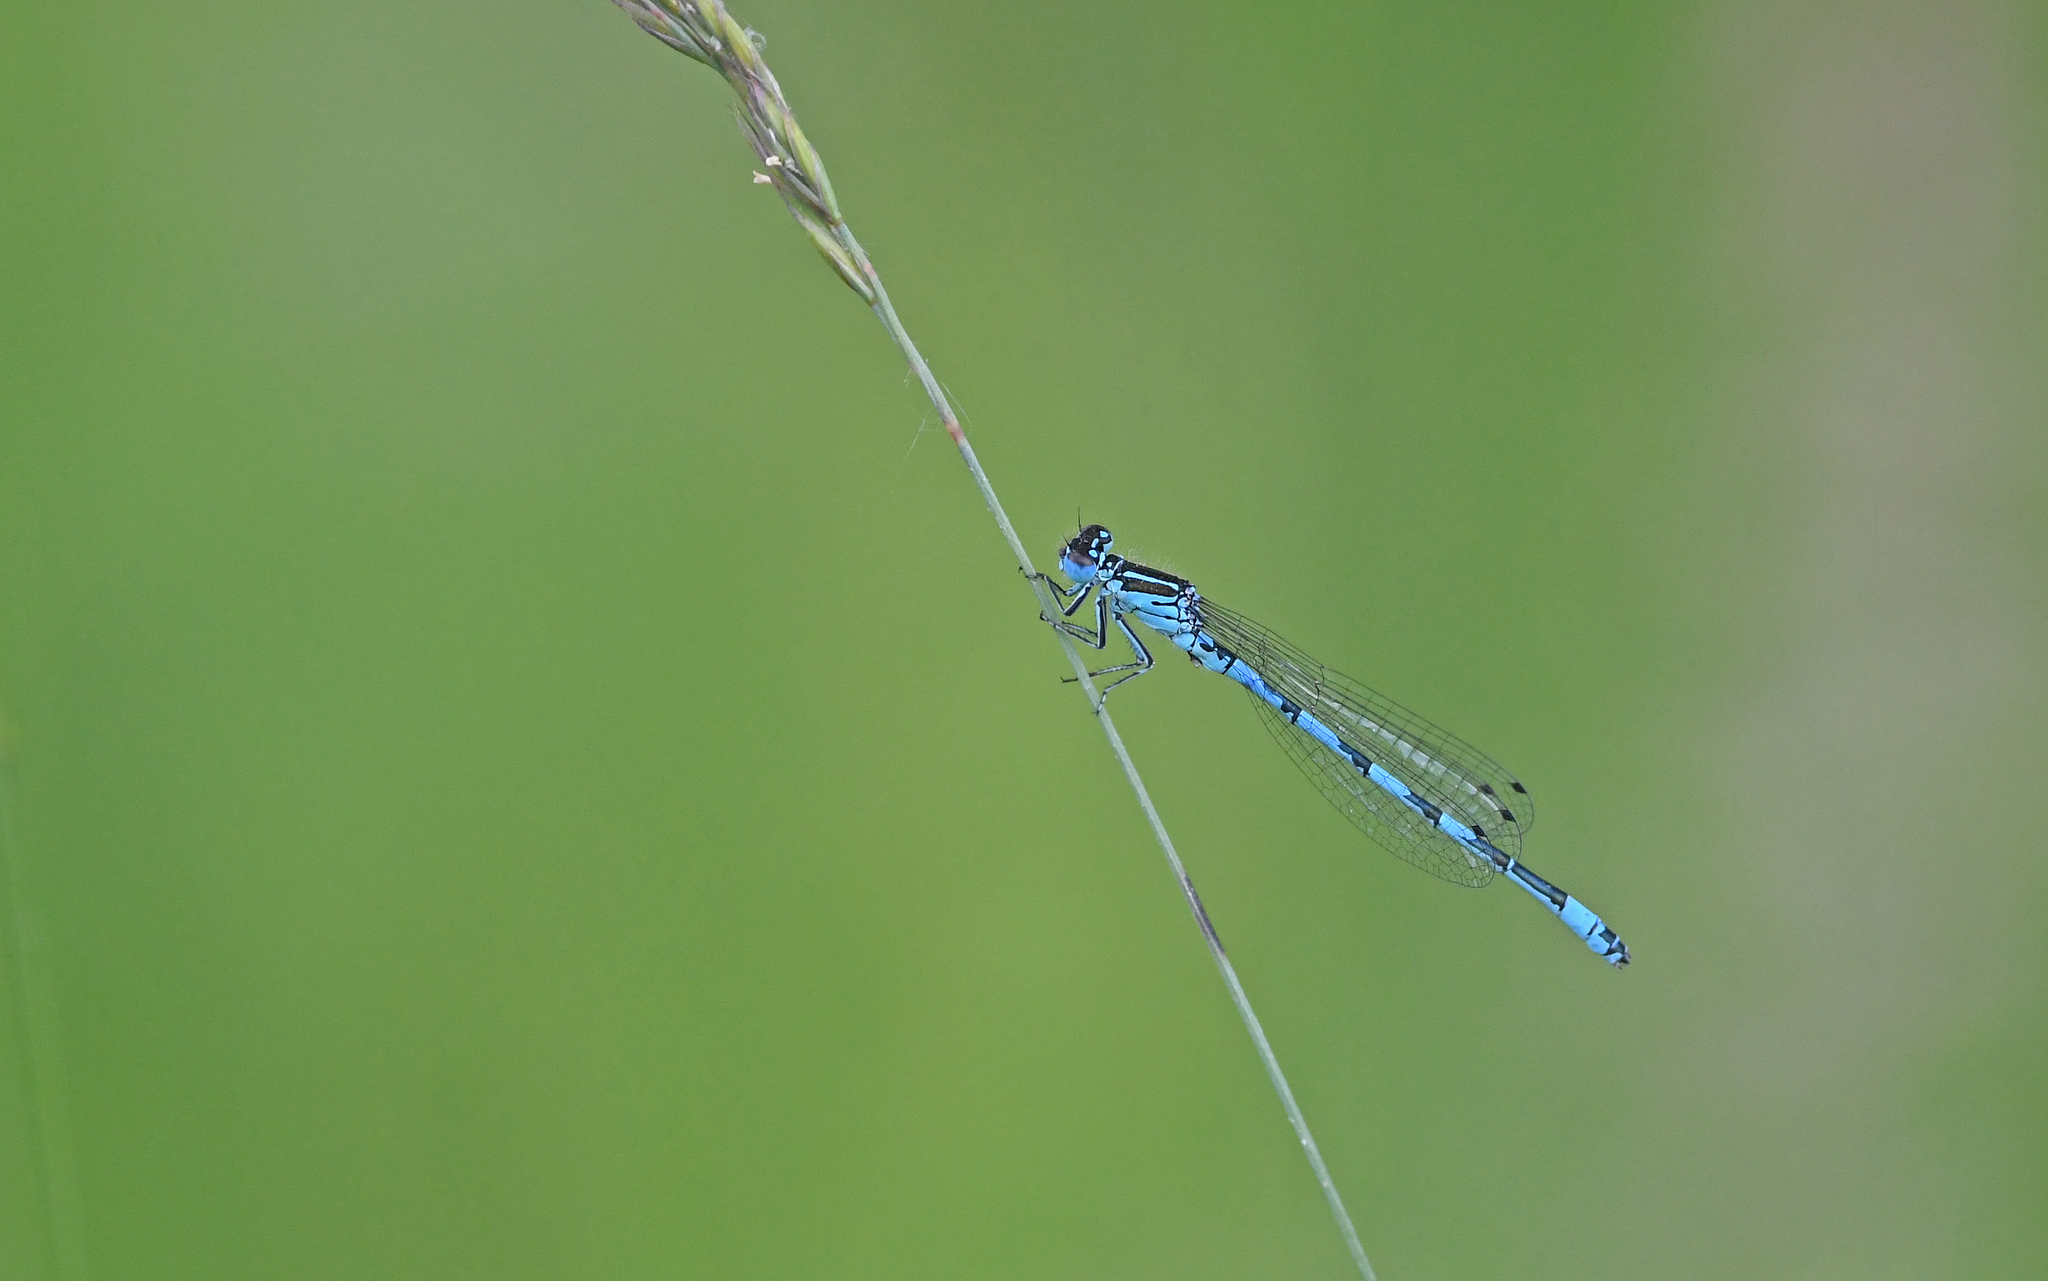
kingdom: Animalia
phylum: Arthropoda
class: Insecta
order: Odonata
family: Coenagrionidae
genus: Coenagrion
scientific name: Coenagrion mercuriale
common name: Southern damselfly
